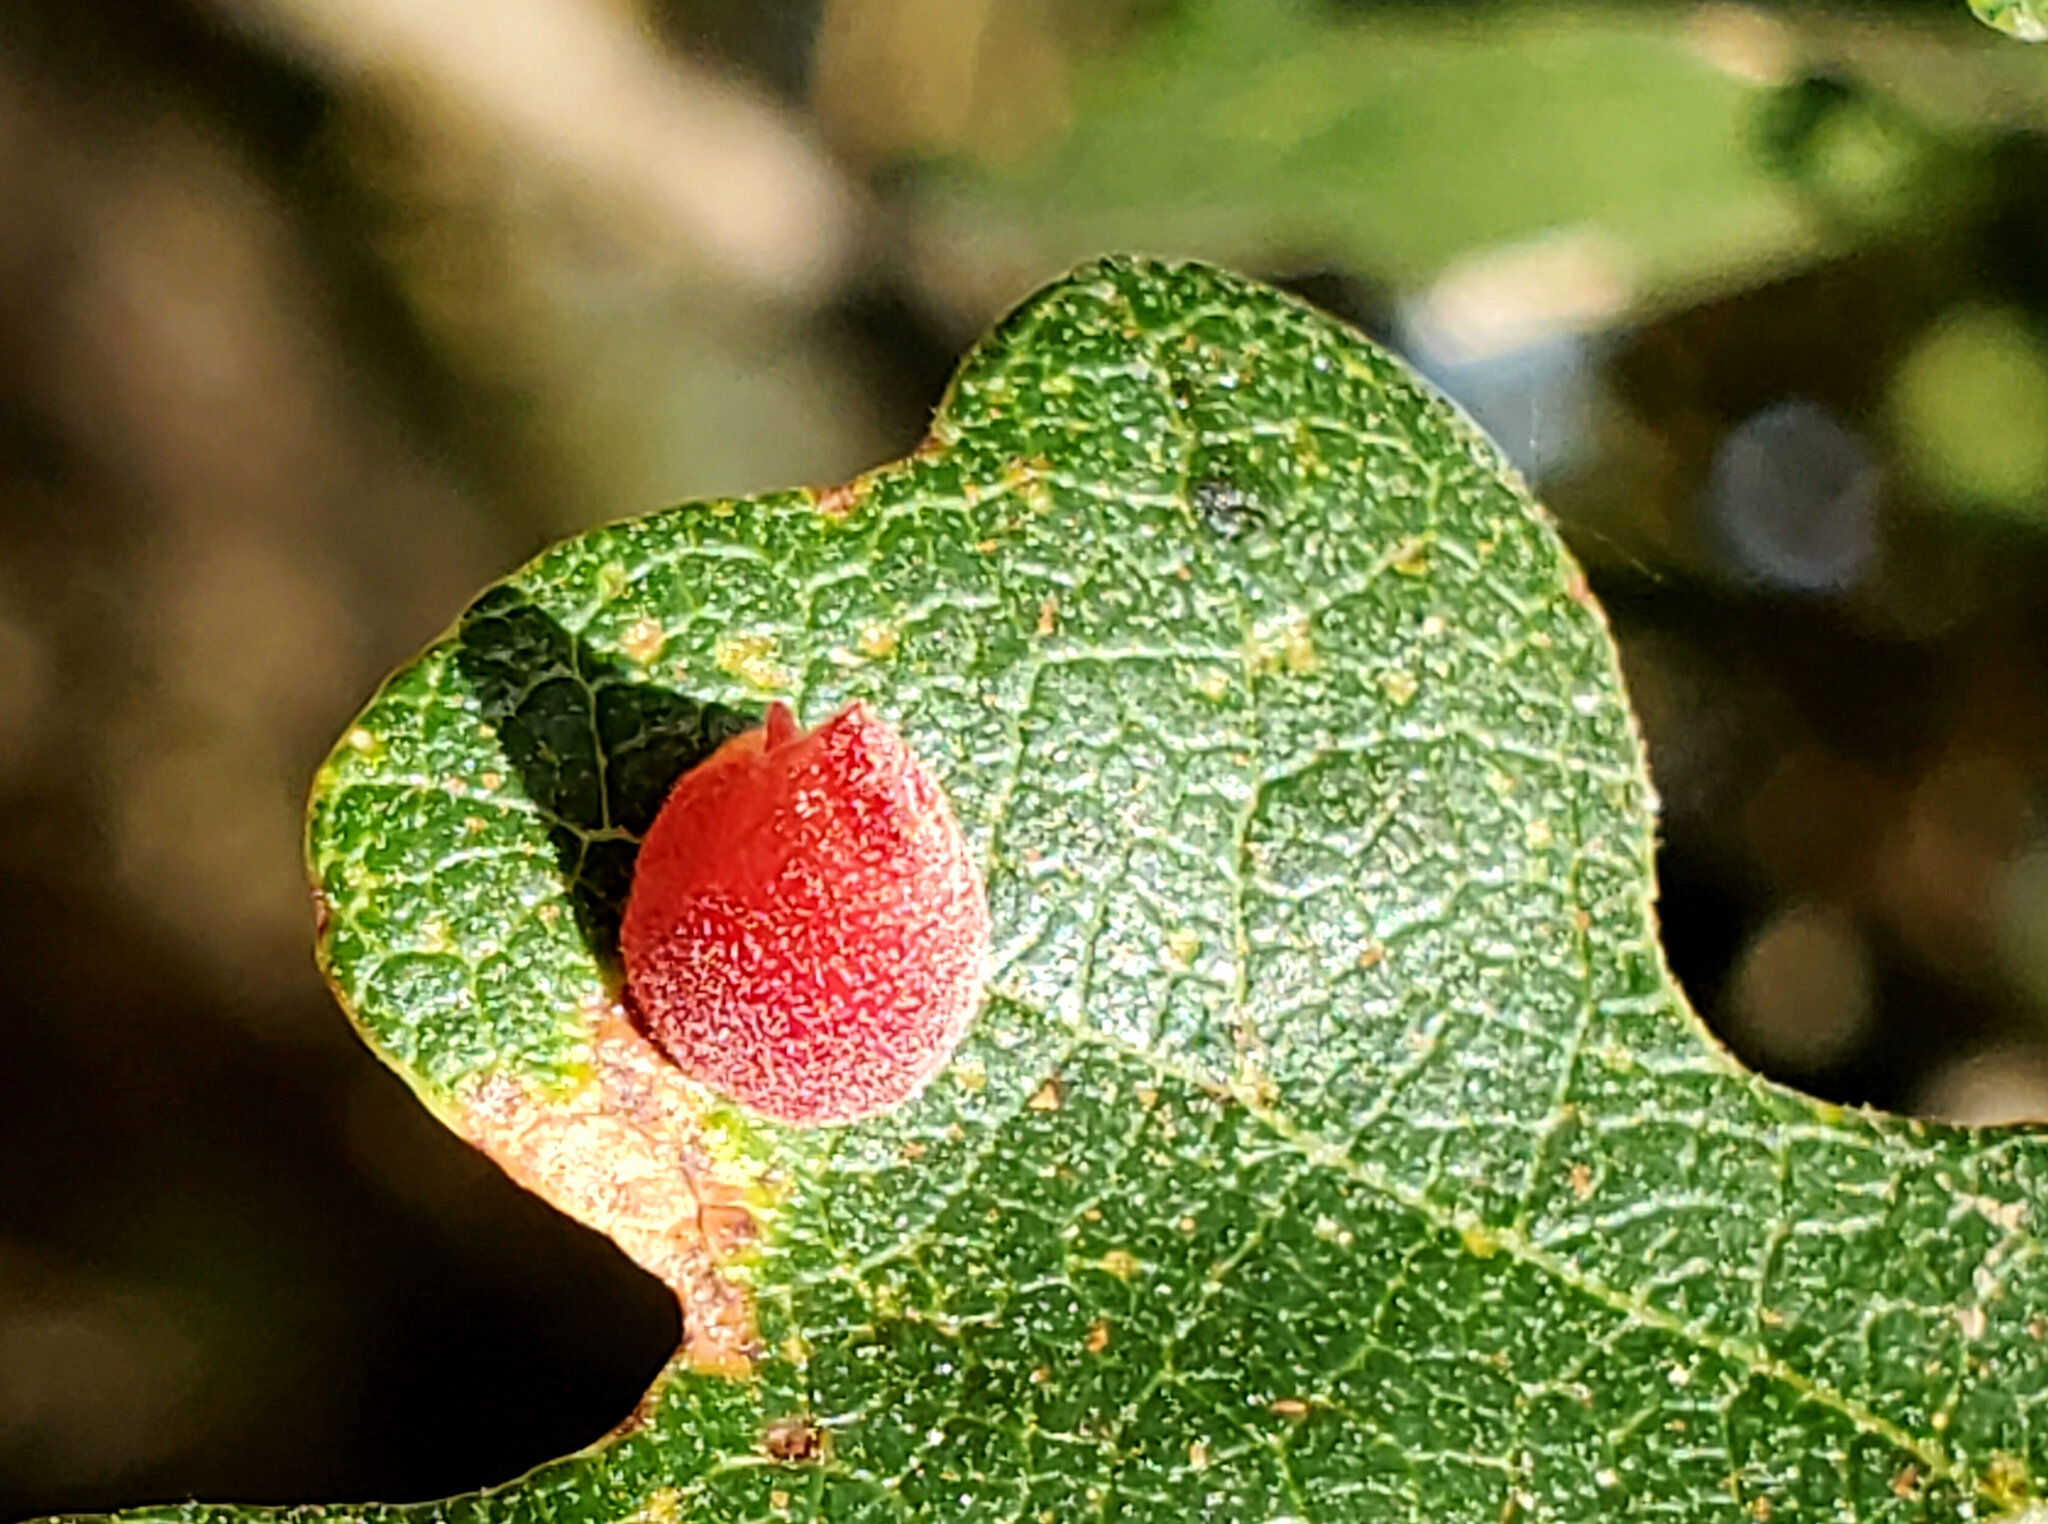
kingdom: Animalia
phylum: Arthropoda
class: Insecta
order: Hymenoptera
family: Cynipidae
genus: Andricus
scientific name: Andricus
